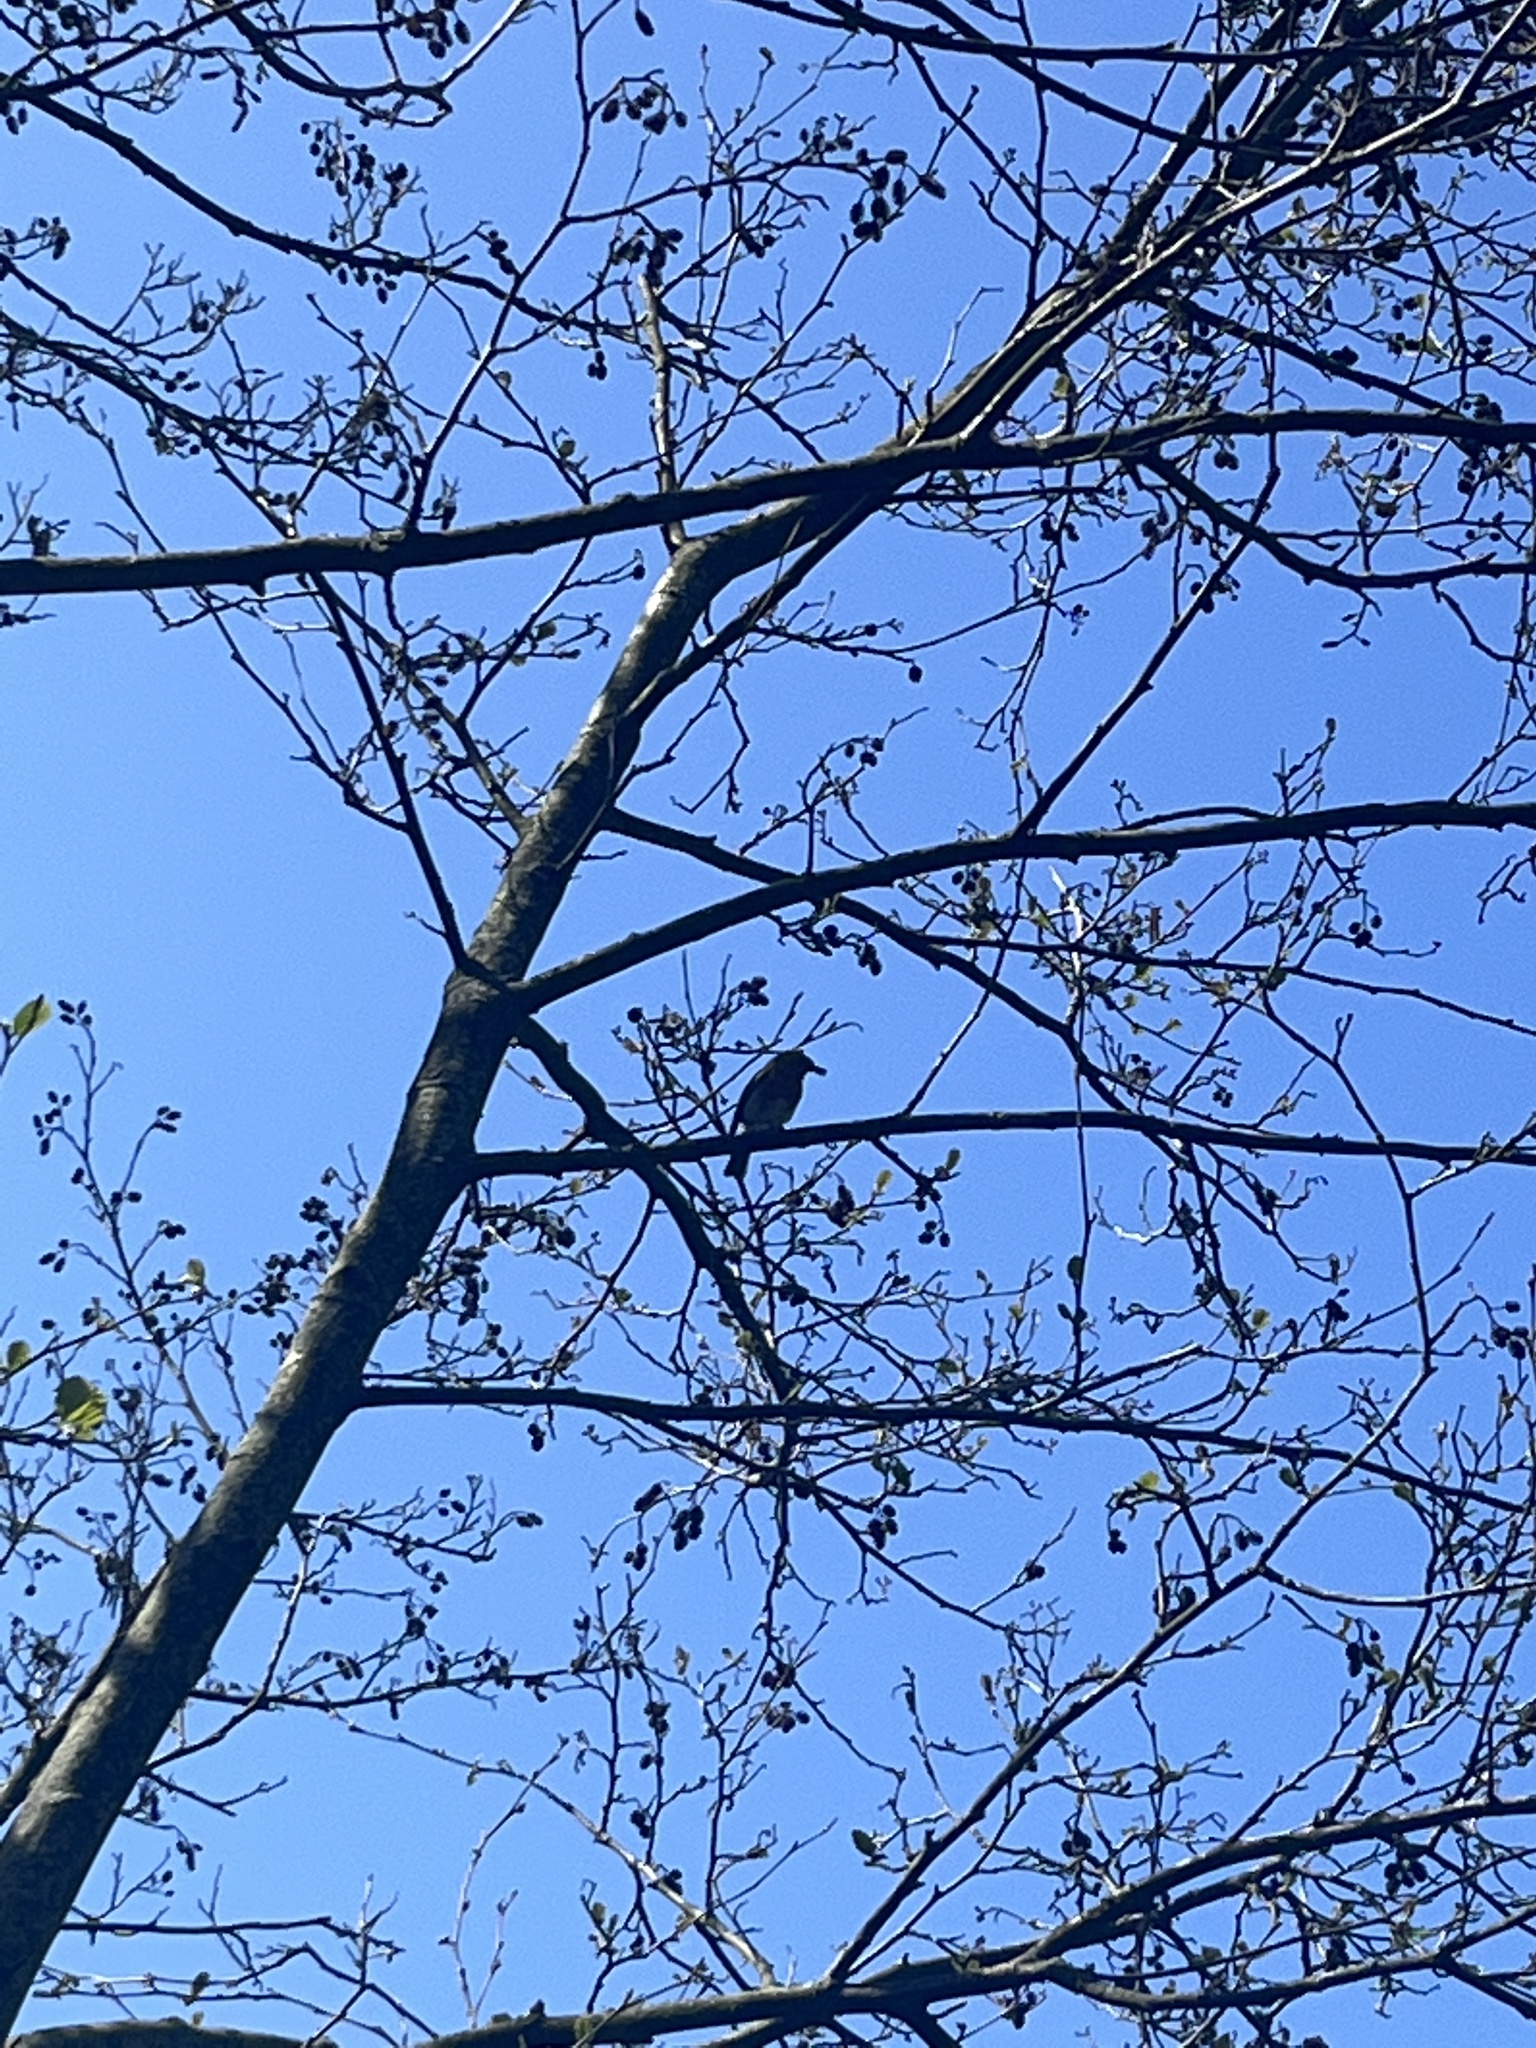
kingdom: Animalia
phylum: Chordata
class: Aves
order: Passeriformes
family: Muscicapidae
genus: Erithacus
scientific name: Erithacus rubecula
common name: European robin
